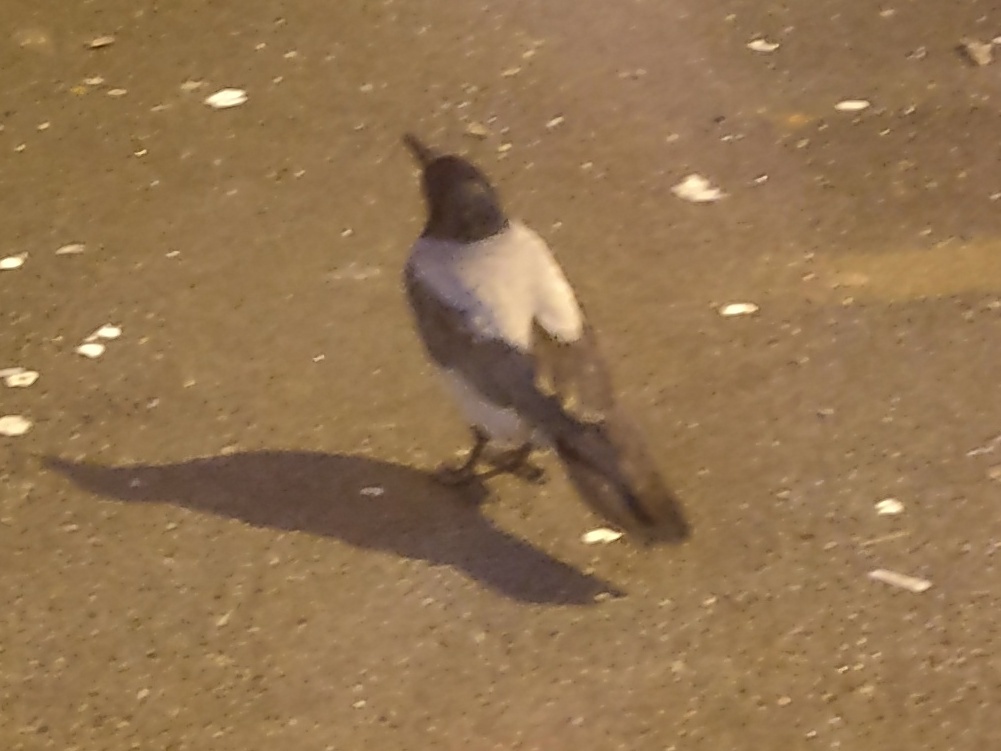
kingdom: Animalia
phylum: Chordata
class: Aves
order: Passeriformes
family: Corvidae
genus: Corvus
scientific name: Corvus cornix
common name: Hooded crow
